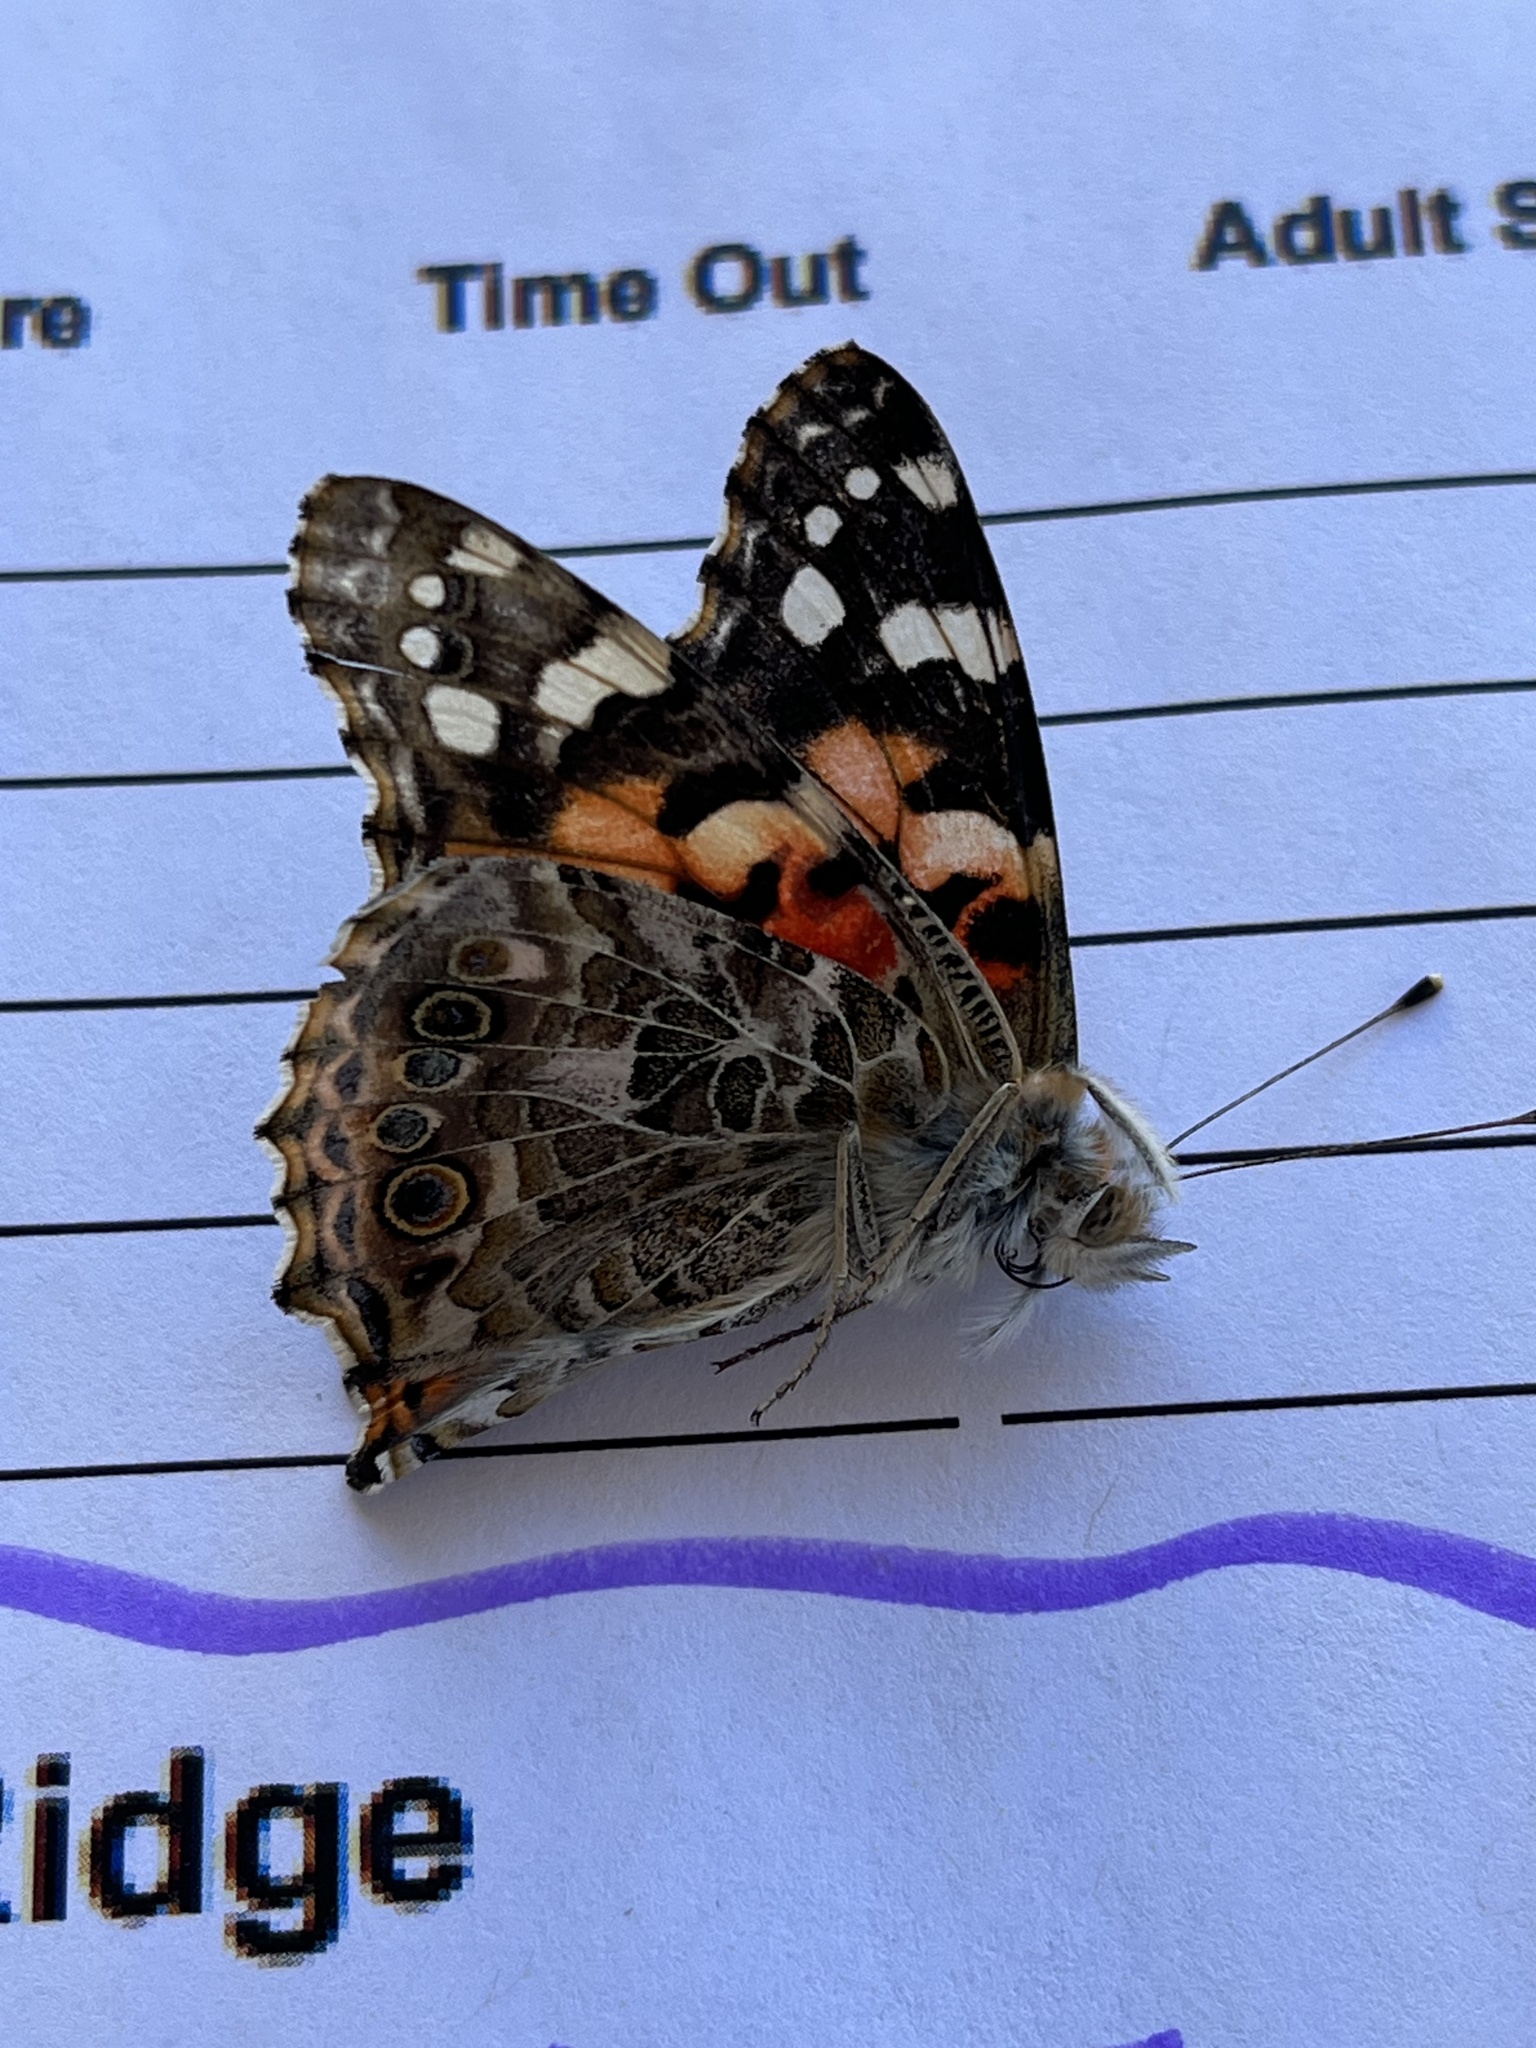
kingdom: Animalia
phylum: Arthropoda
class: Insecta
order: Lepidoptera
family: Nymphalidae
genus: Vanessa
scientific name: Vanessa cardui
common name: Painted lady
